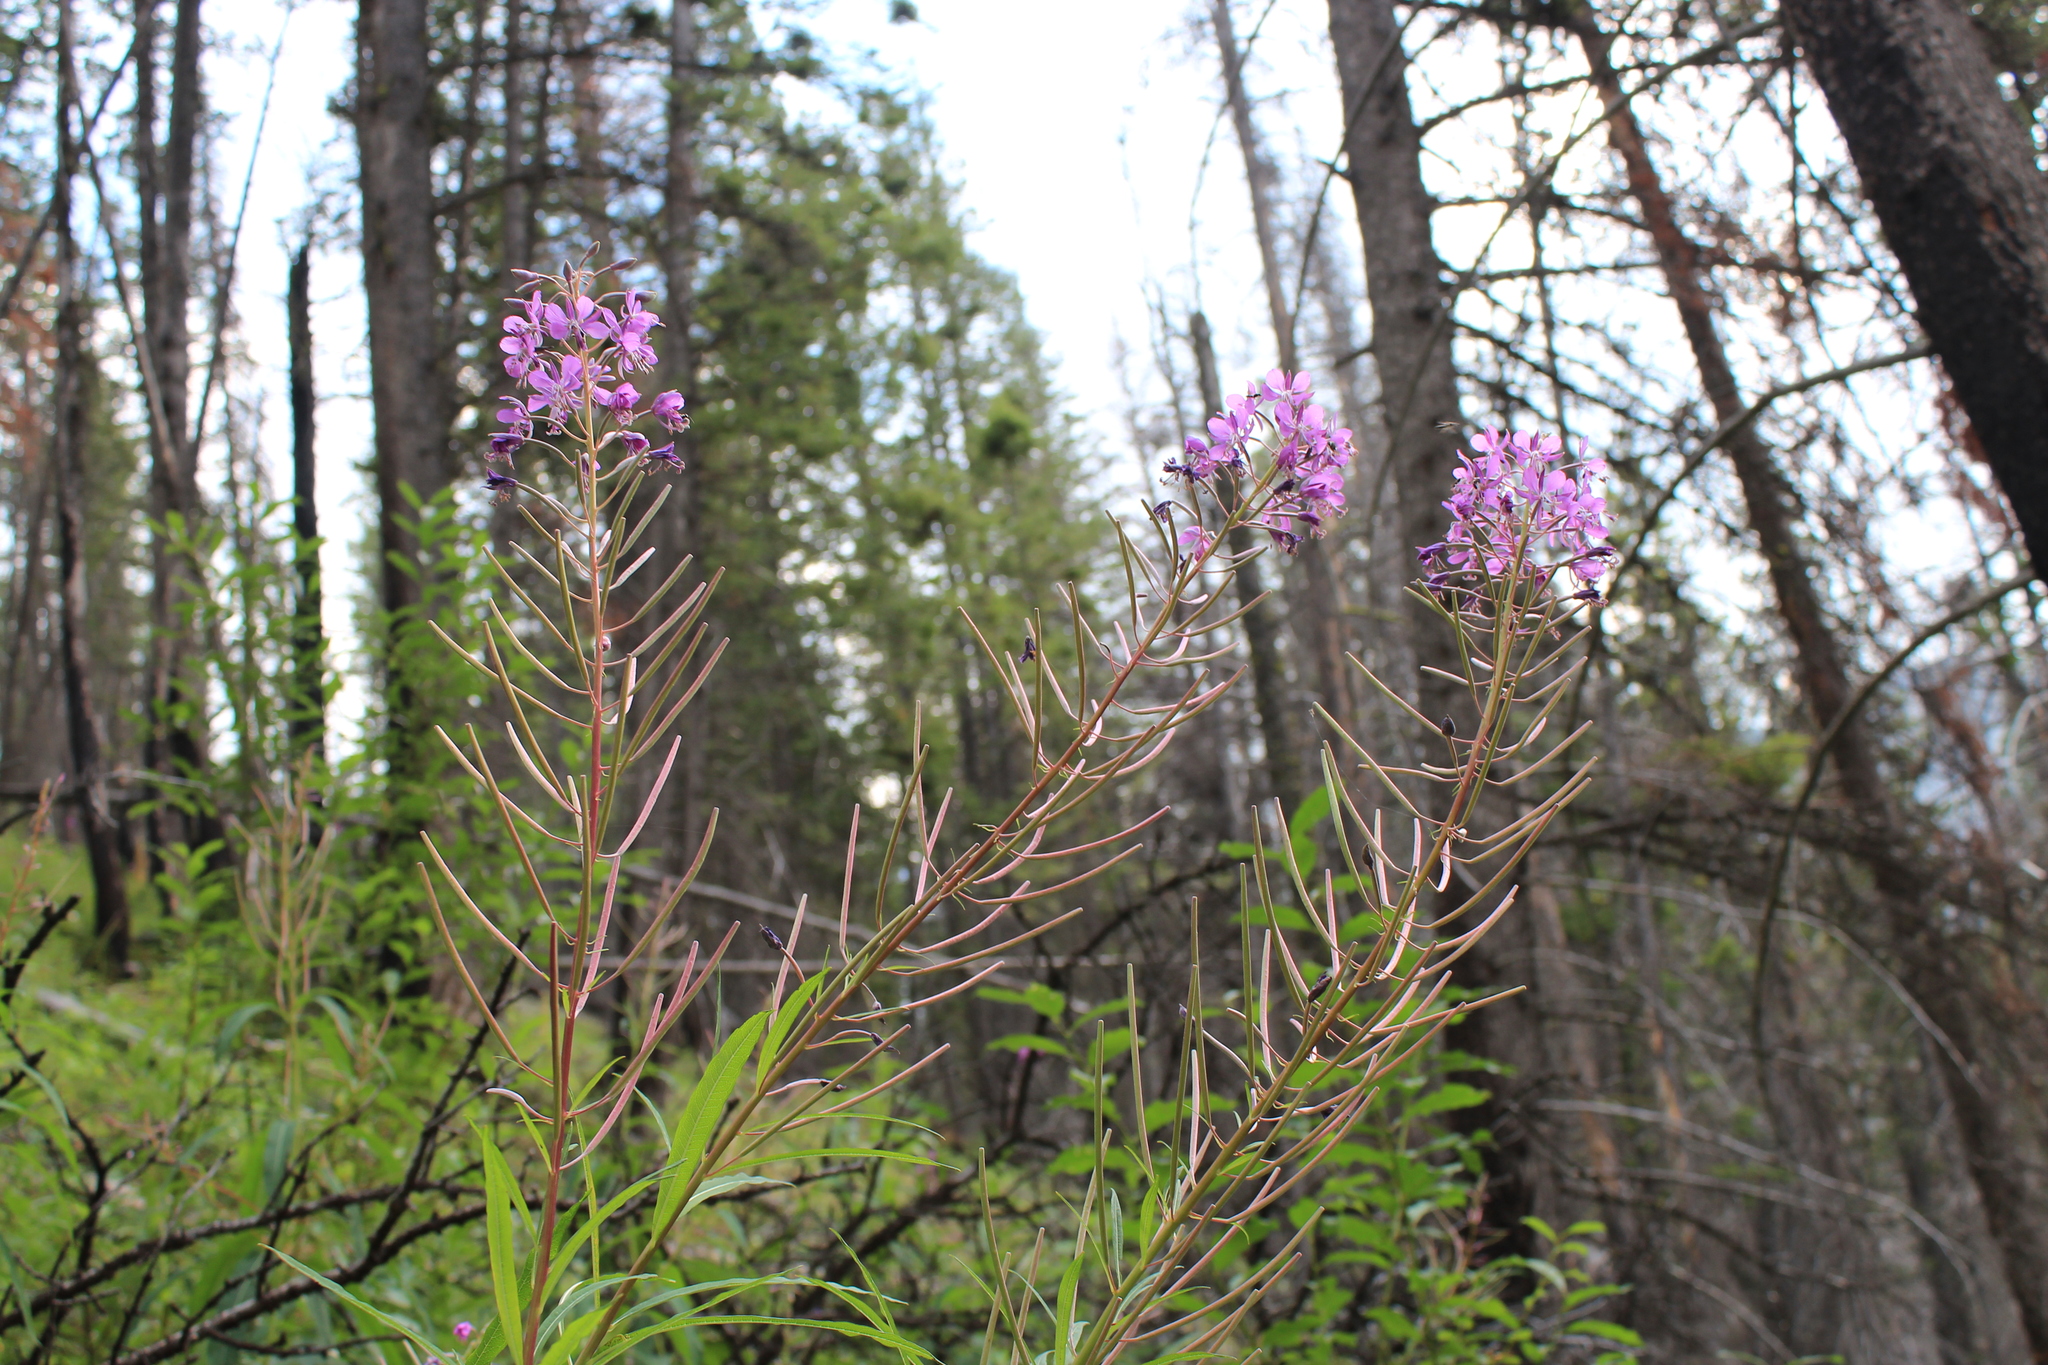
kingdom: Plantae
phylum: Tracheophyta
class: Magnoliopsida
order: Myrtales
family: Onagraceae
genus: Chamaenerion
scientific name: Chamaenerion angustifolium
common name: Fireweed
